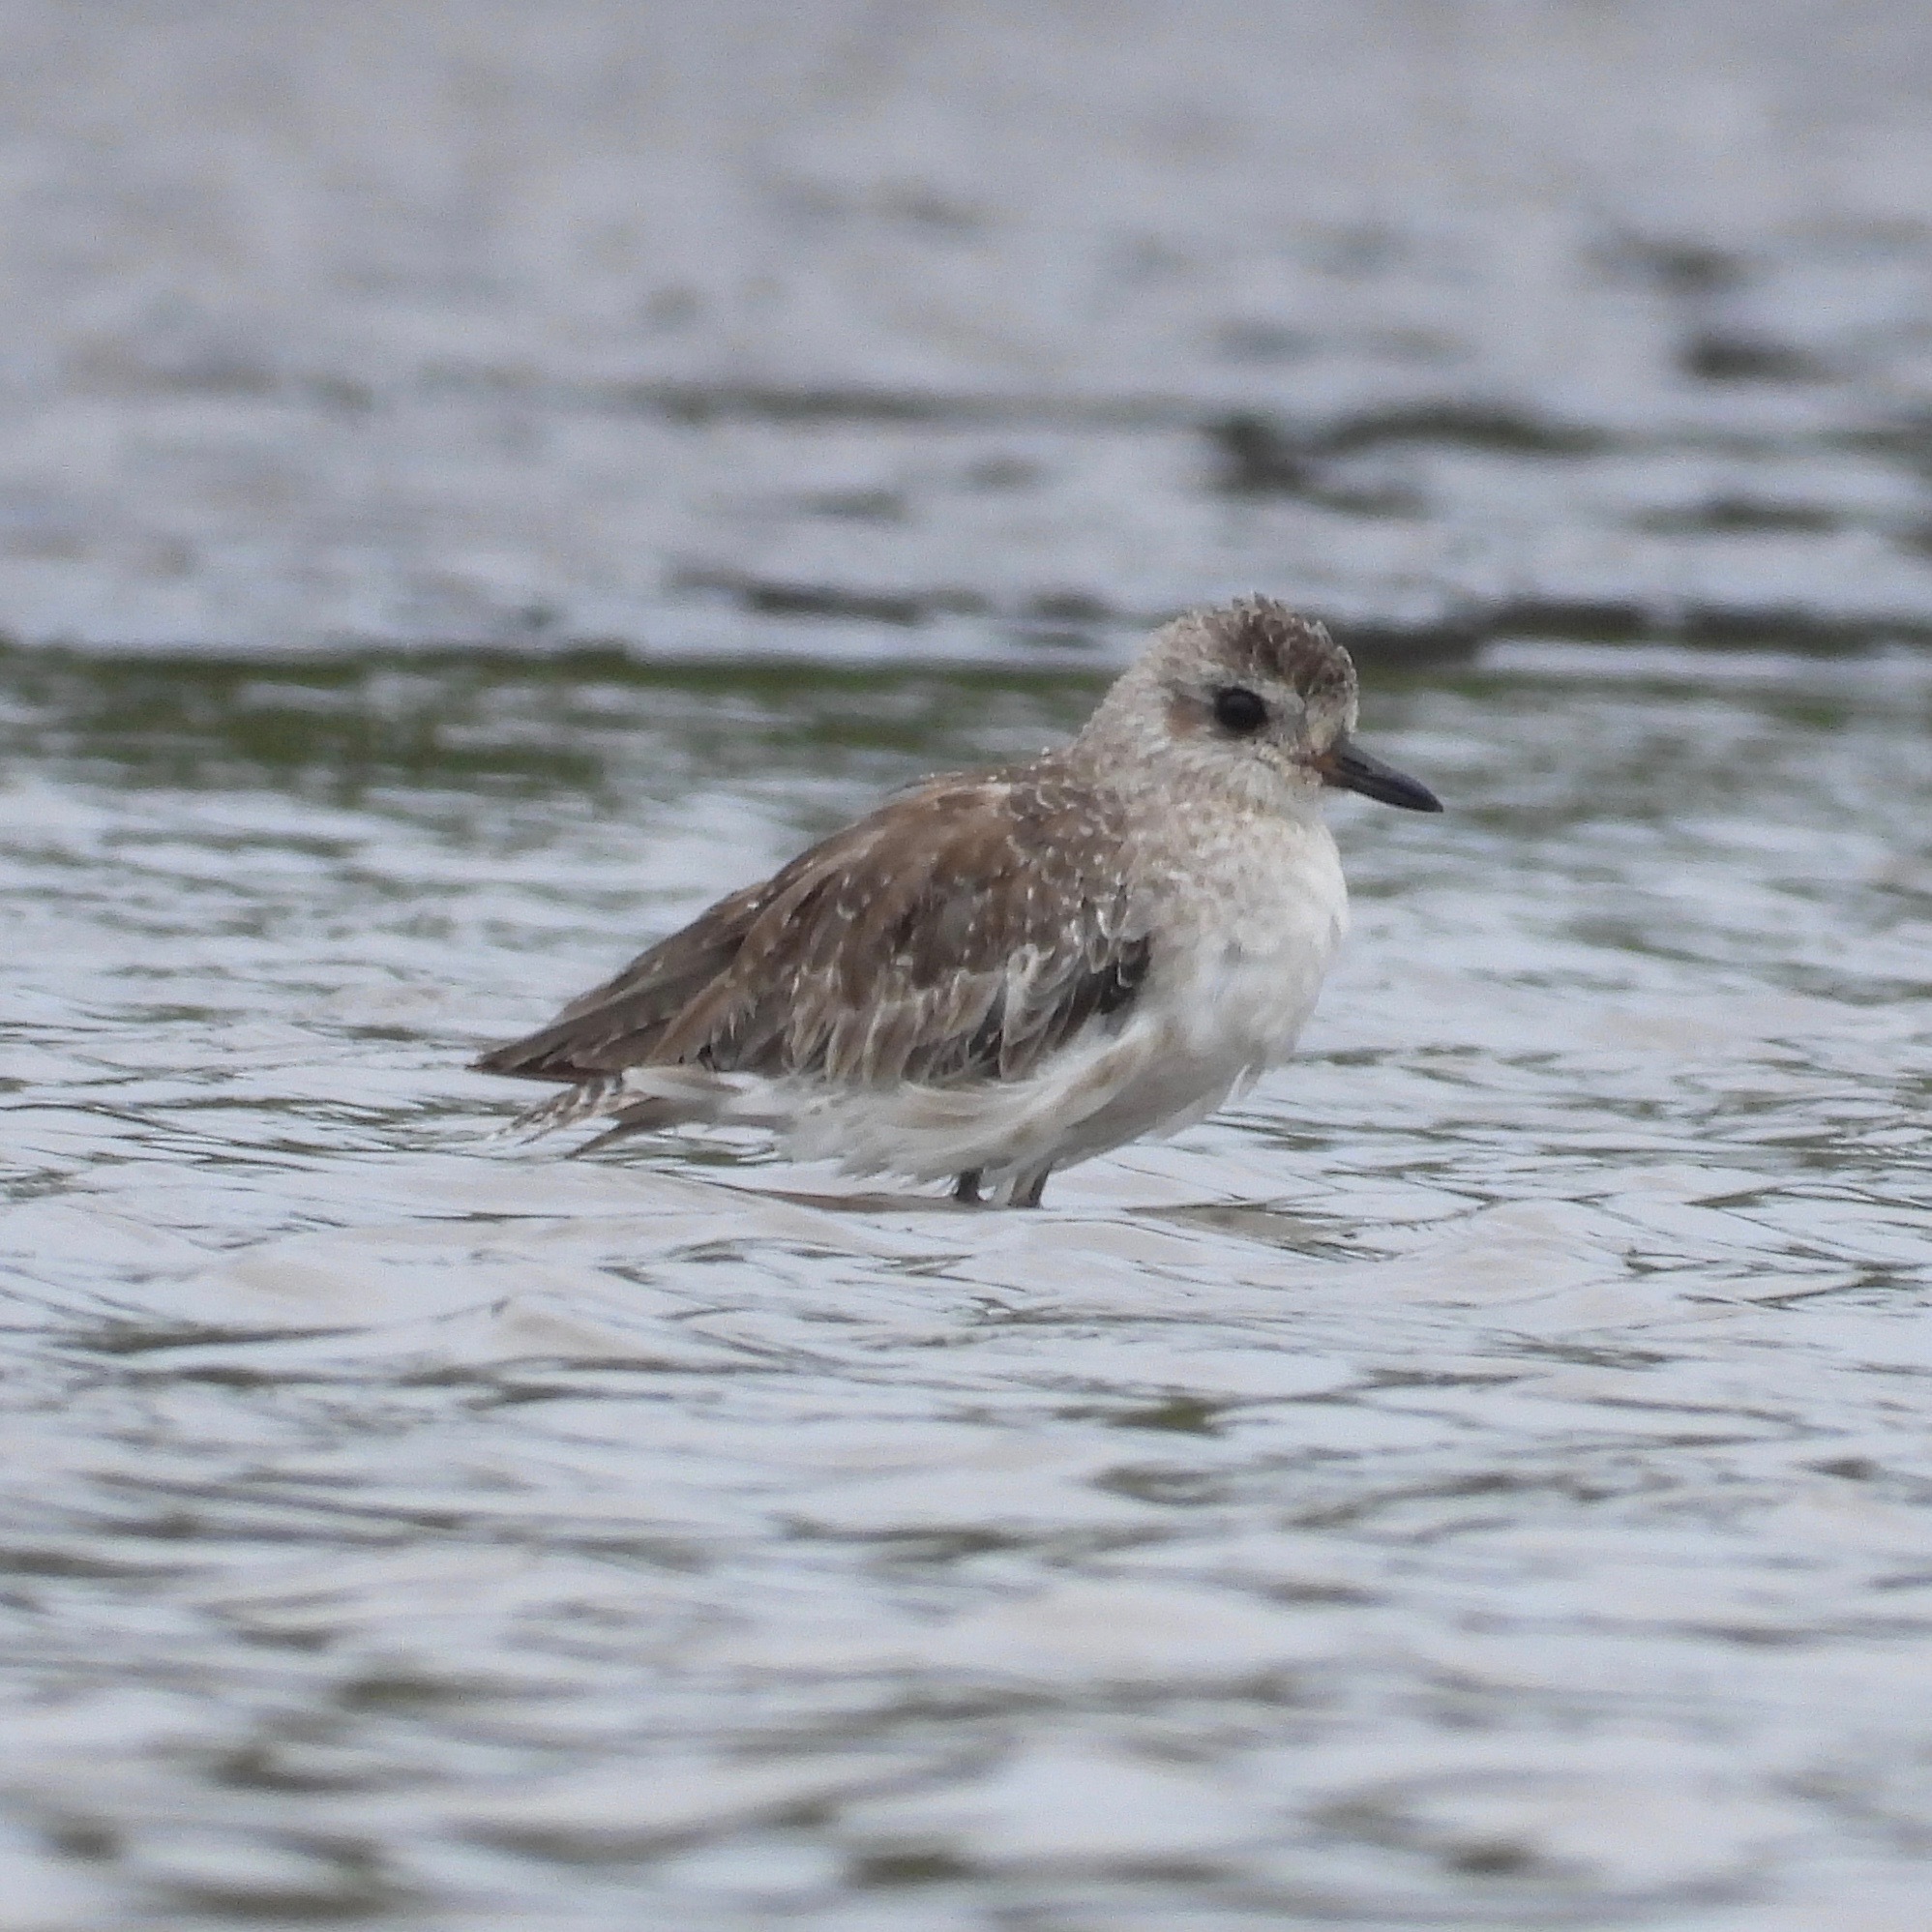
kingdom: Animalia
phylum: Chordata
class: Aves
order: Charadriiformes
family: Charadriidae
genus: Pluvialis
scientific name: Pluvialis squatarola
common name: Grey plover
